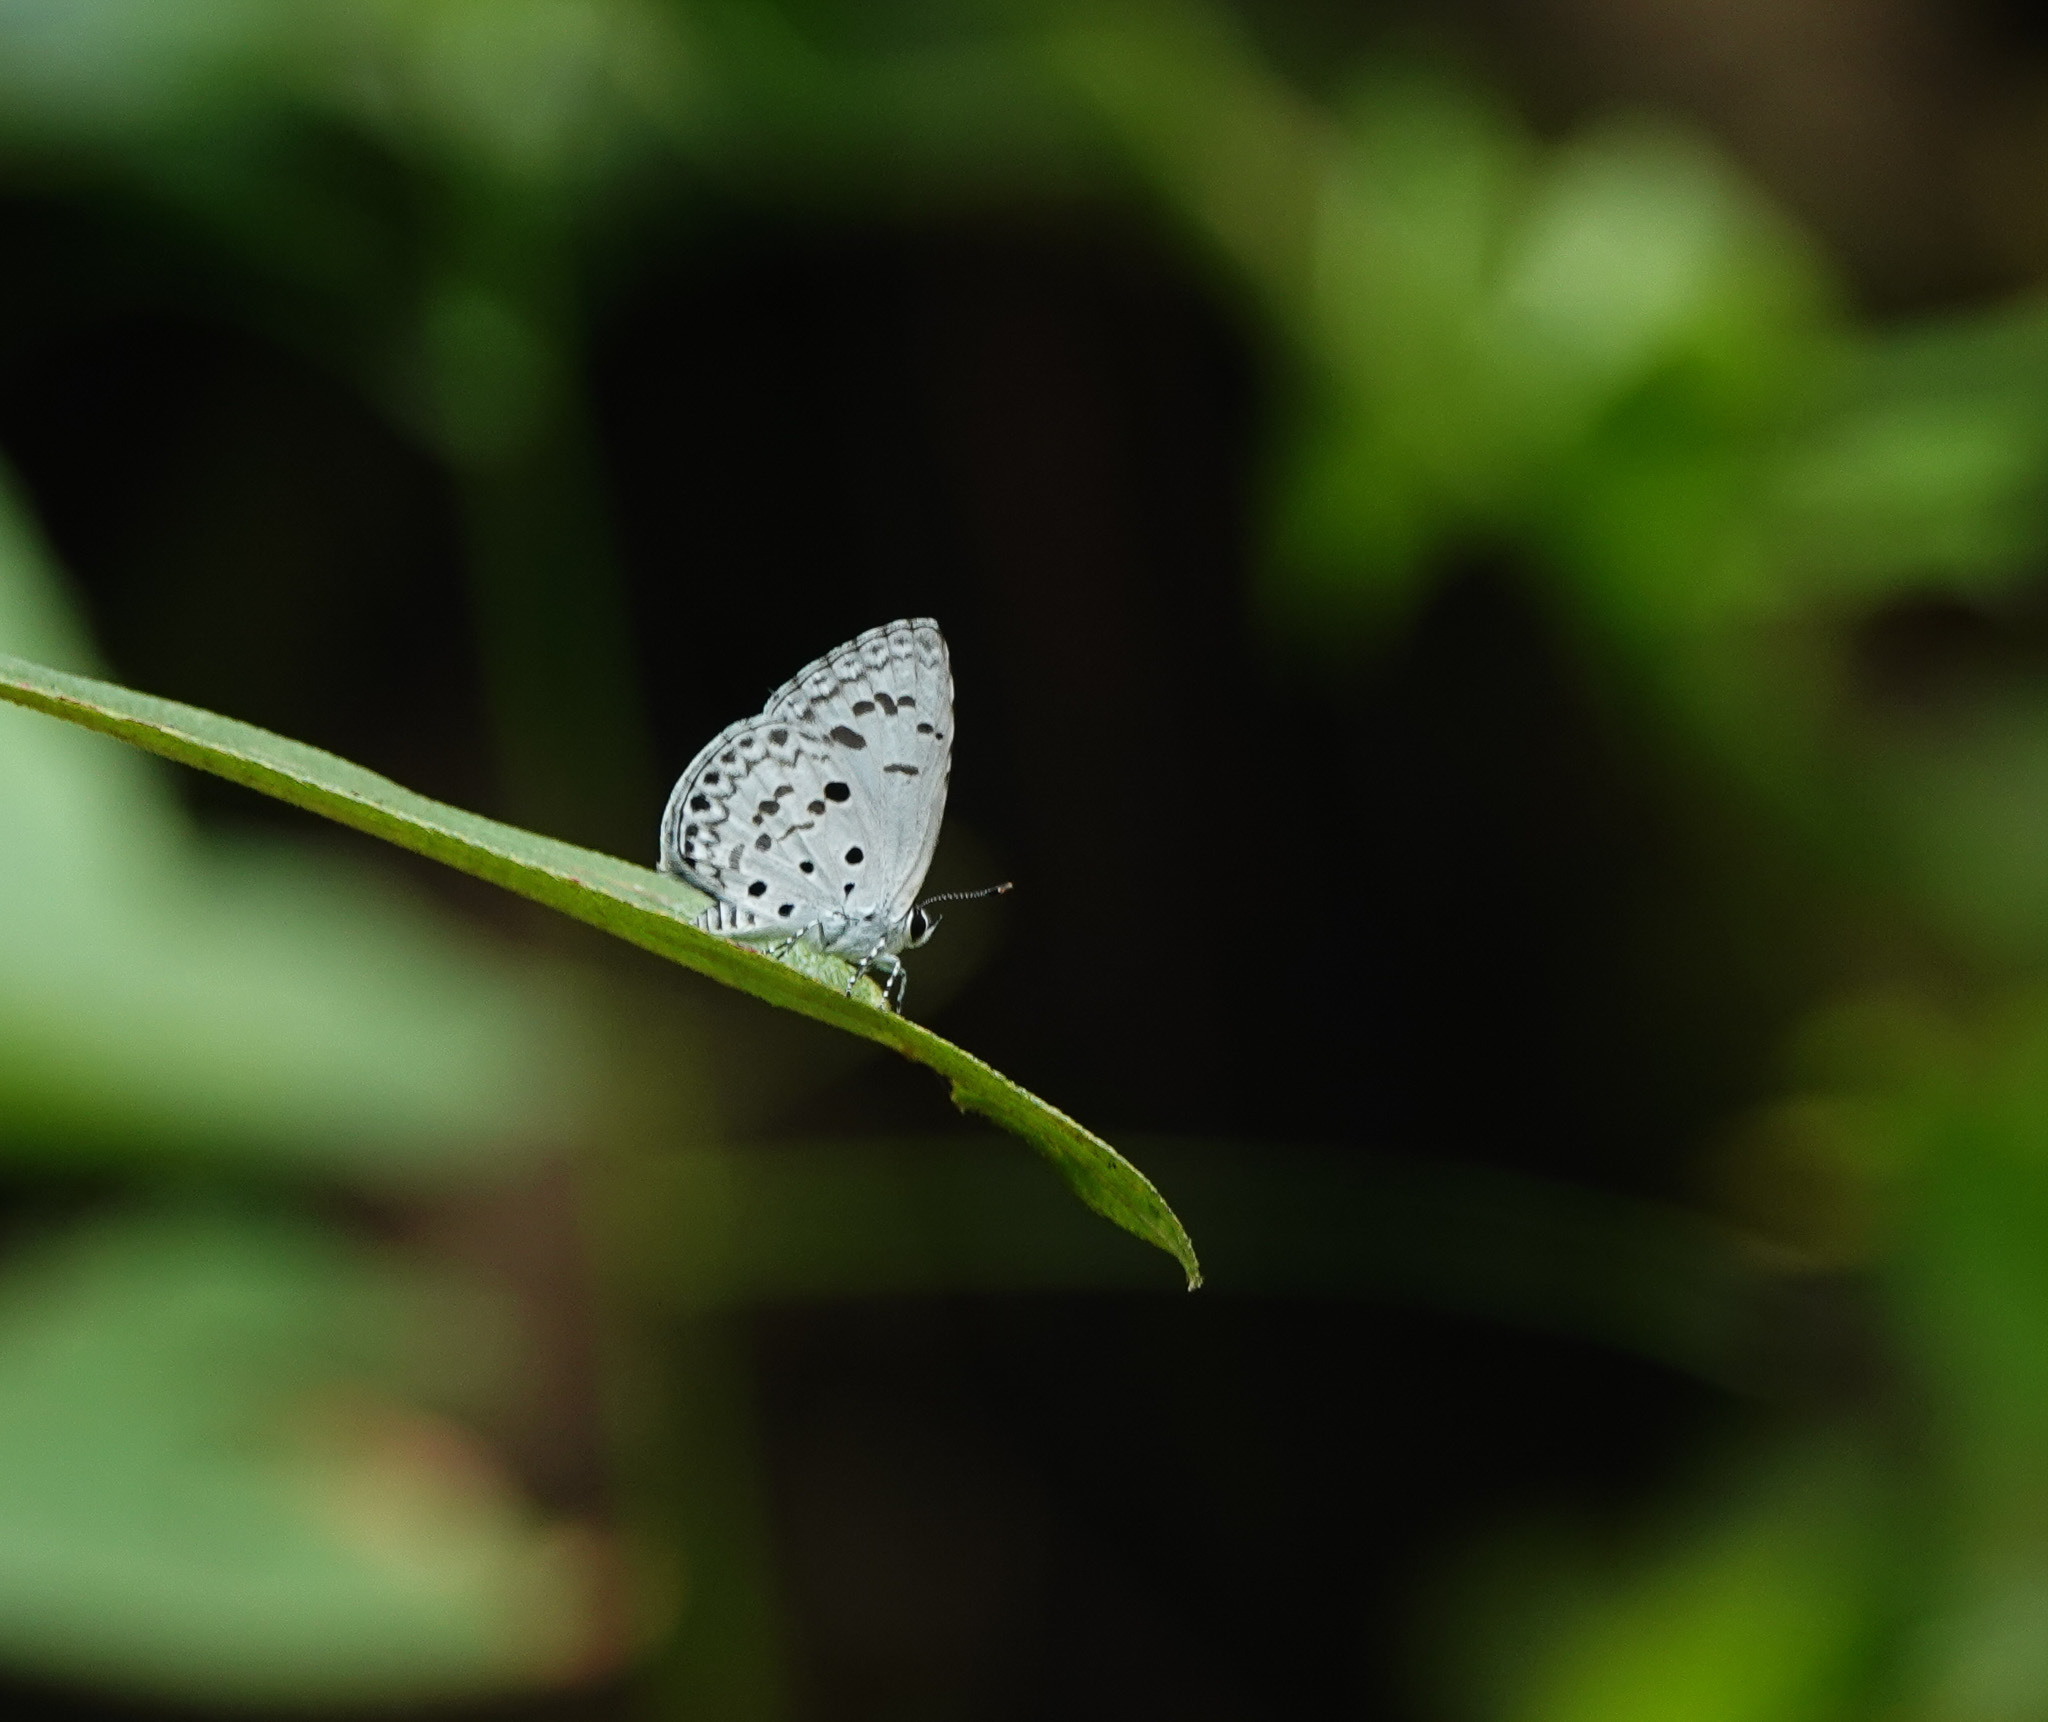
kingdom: Animalia
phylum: Arthropoda
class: Insecta
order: Lepidoptera
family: Lycaenidae
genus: Acytolepis
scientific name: Acytolepis puspa
